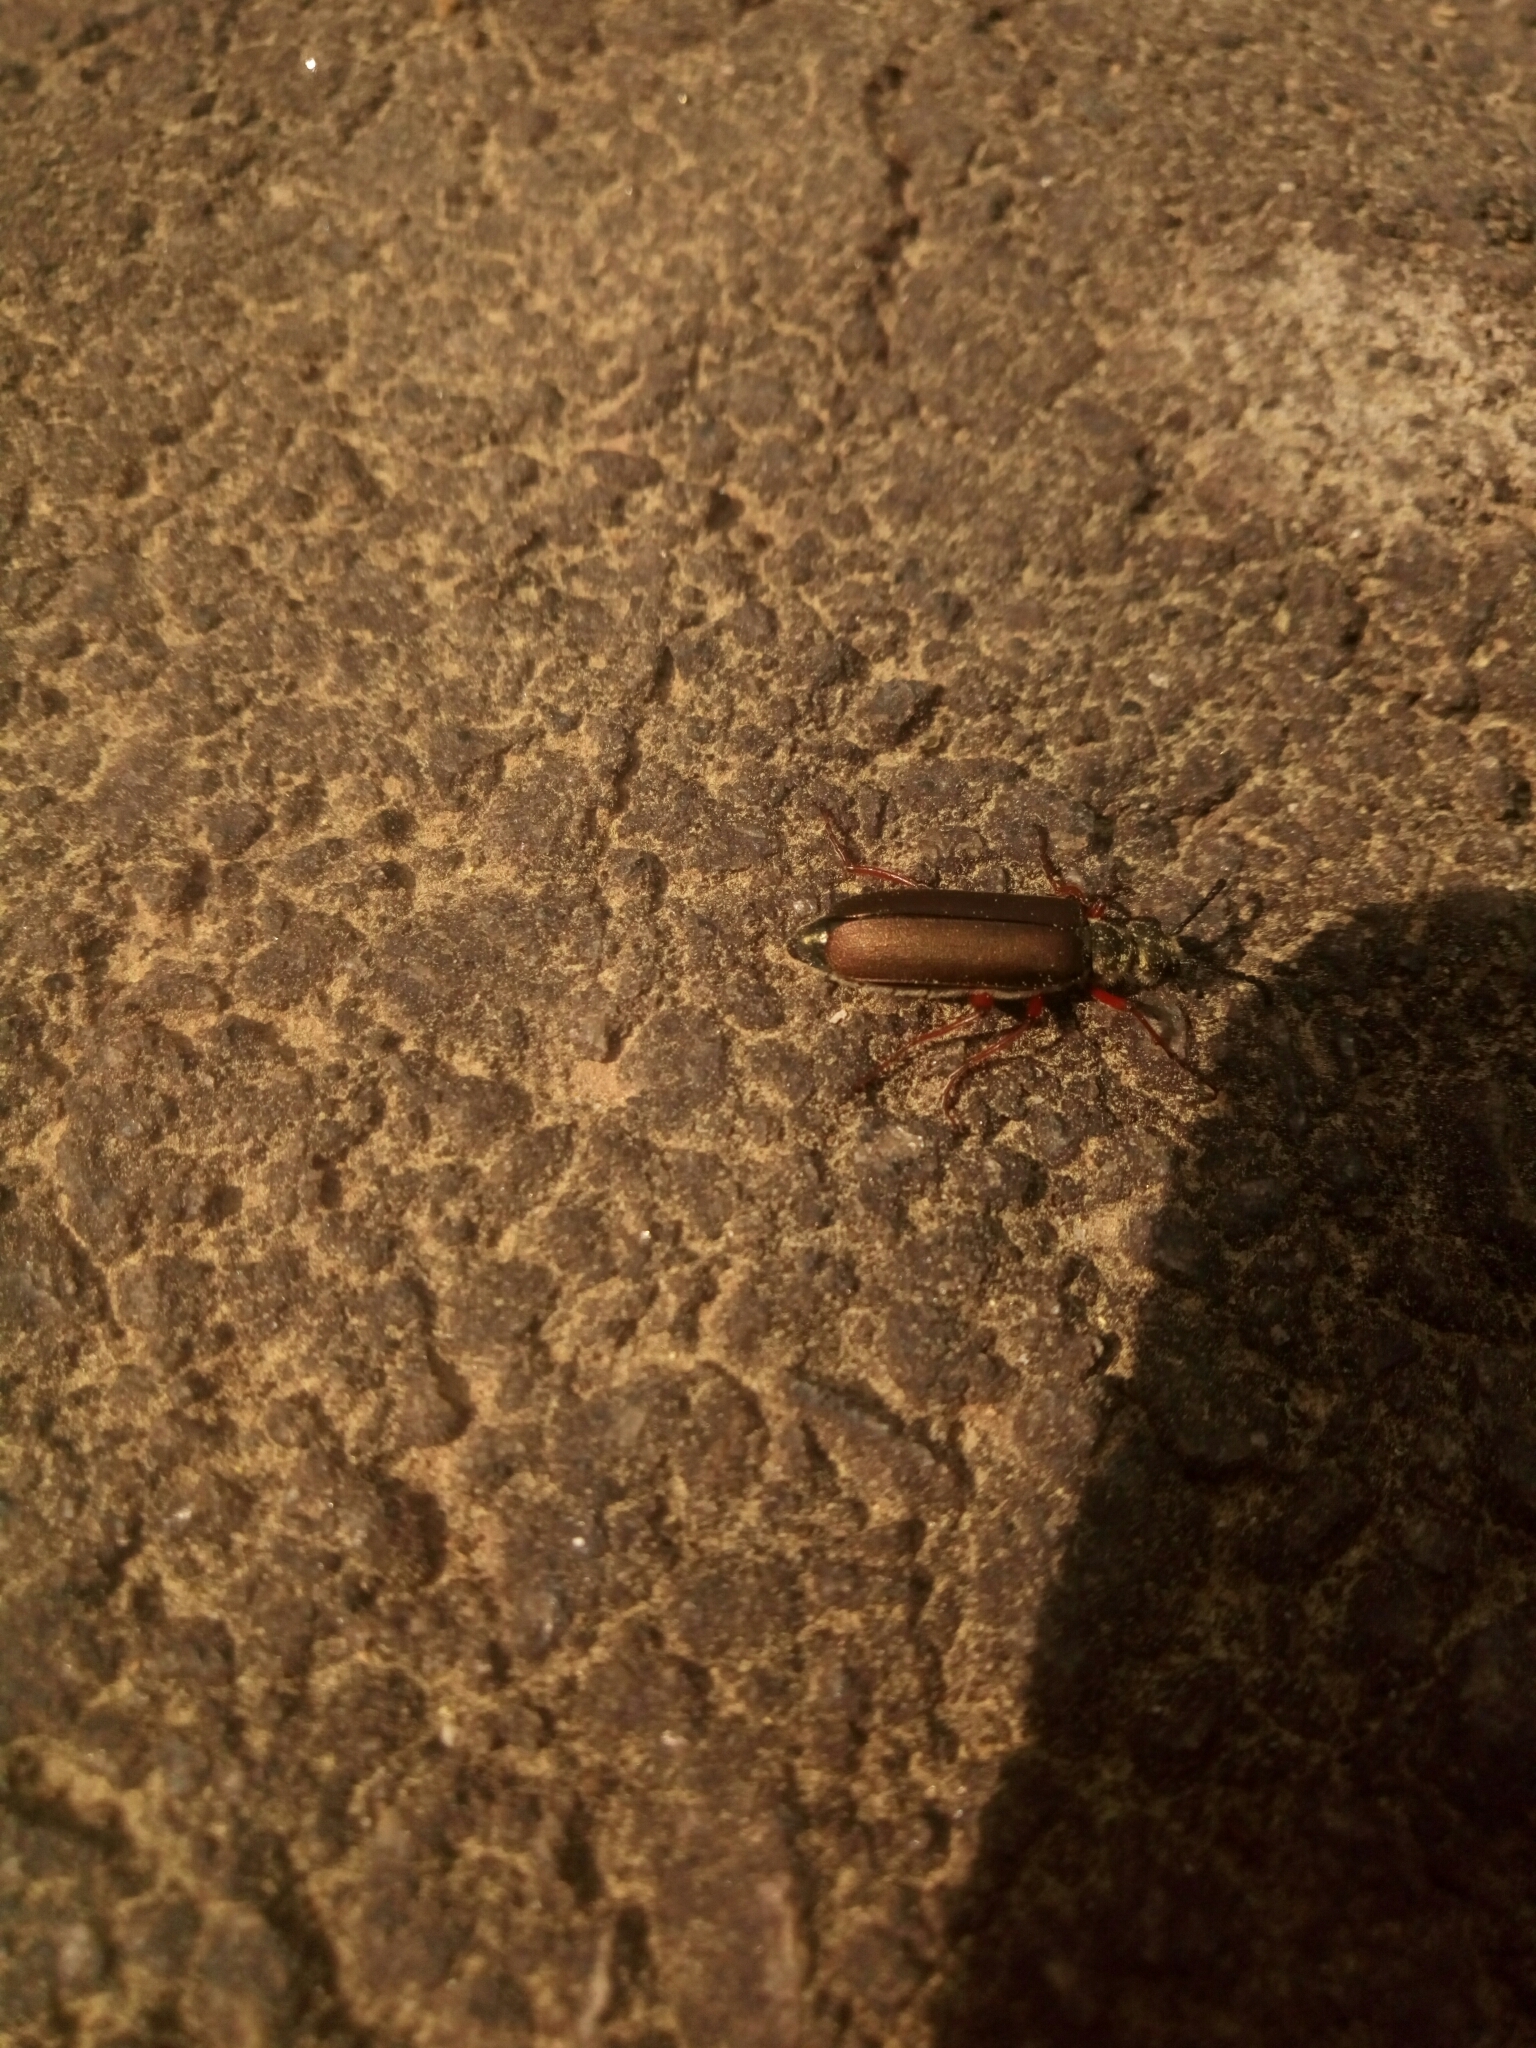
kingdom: Animalia
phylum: Arthropoda
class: Insecta
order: Coleoptera
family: Meloidae
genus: Lytta
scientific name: Lytta aenea
